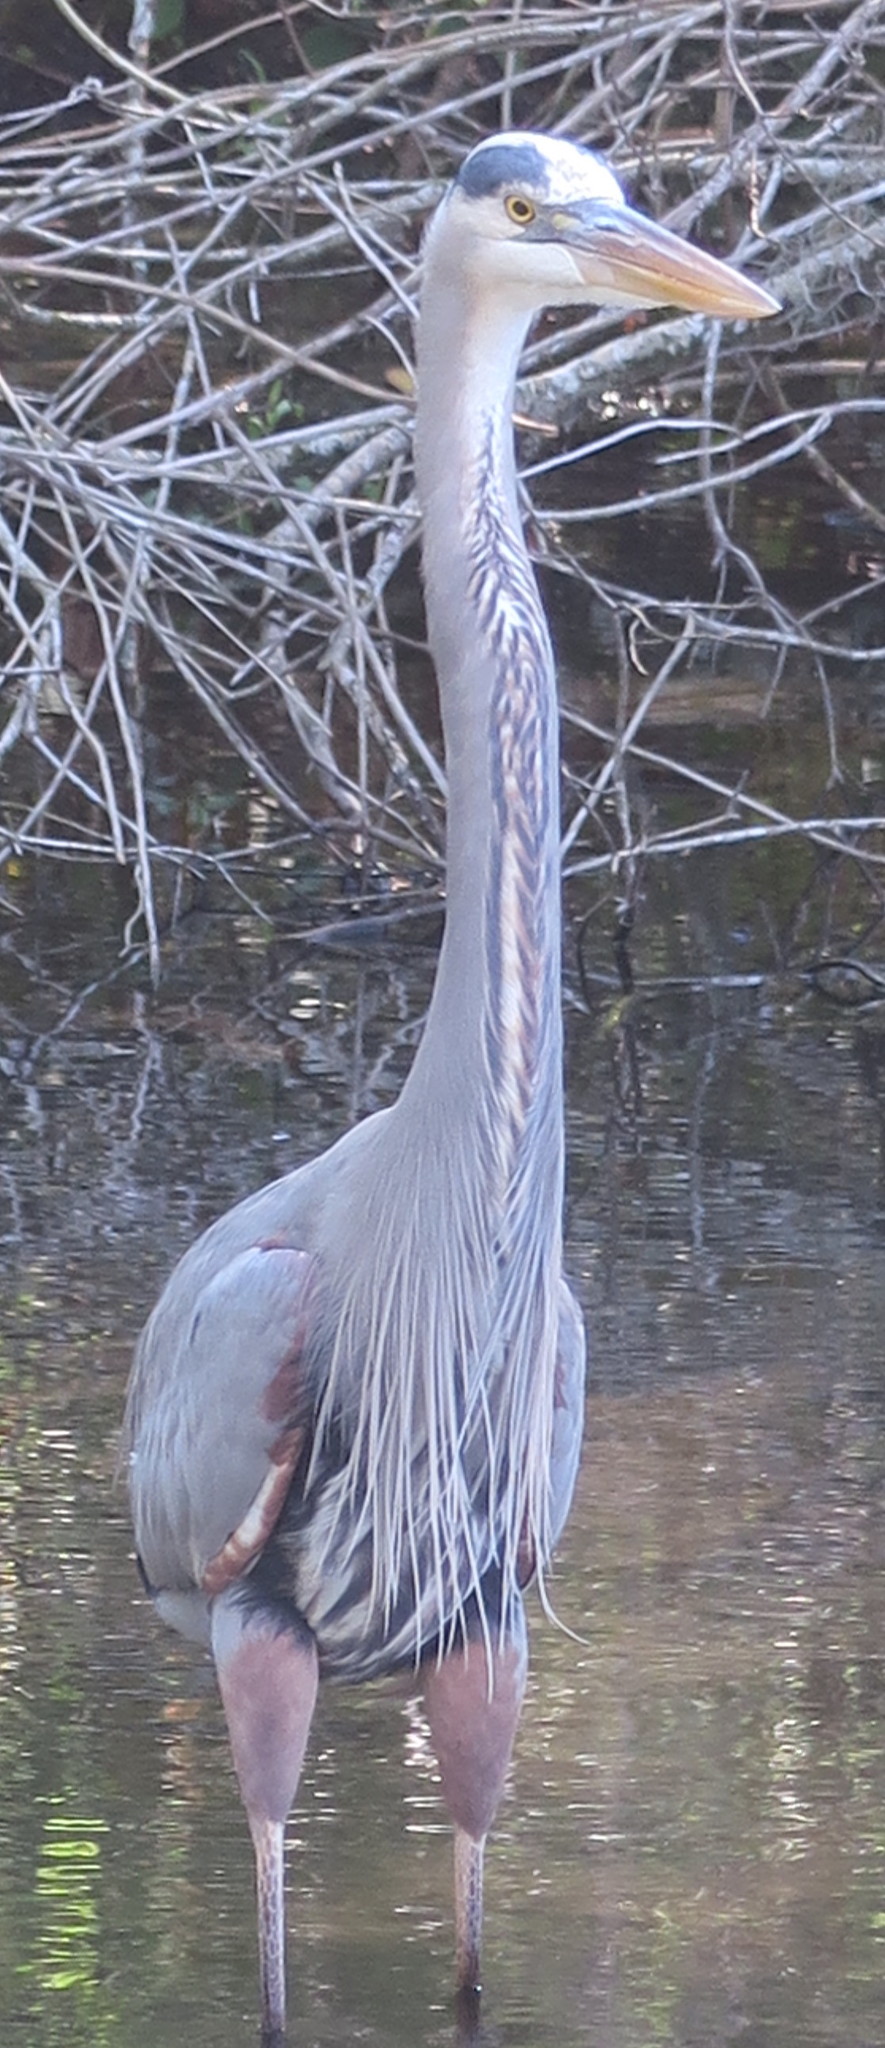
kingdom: Animalia
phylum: Chordata
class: Aves
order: Pelecaniformes
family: Ardeidae
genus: Ardea
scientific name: Ardea herodias
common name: Great blue heron
